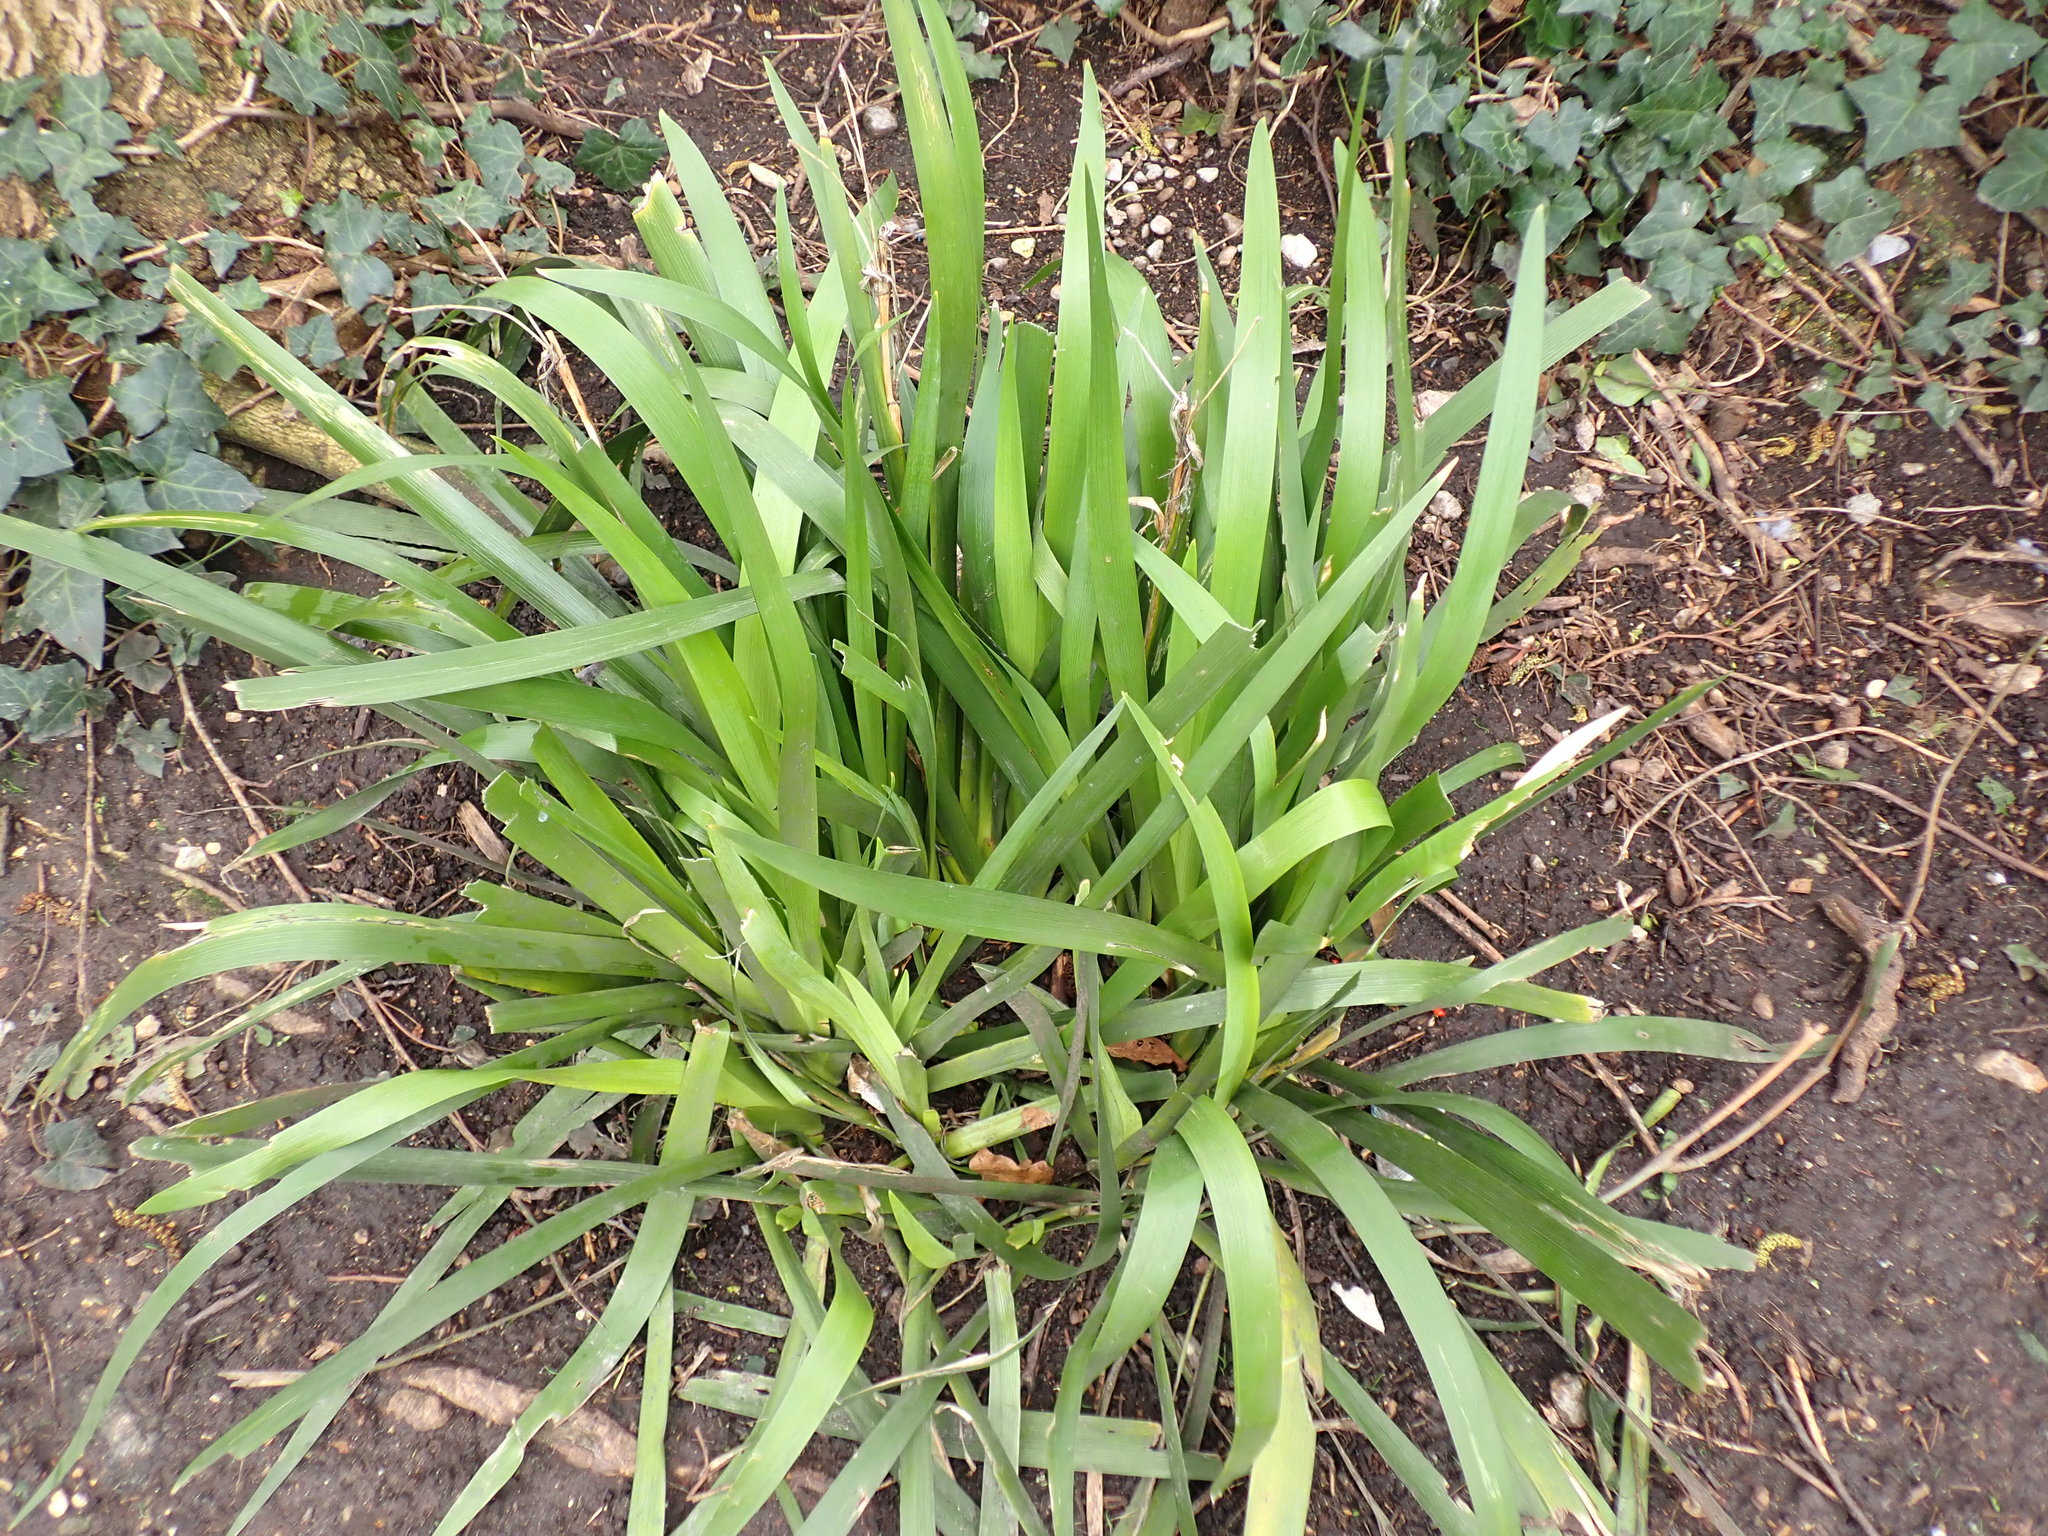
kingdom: Plantae
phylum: Tracheophyta
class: Liliopsida
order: Asparagales
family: Iridaceae
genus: Iris
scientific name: Iris foetidissima
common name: Stinking iris
